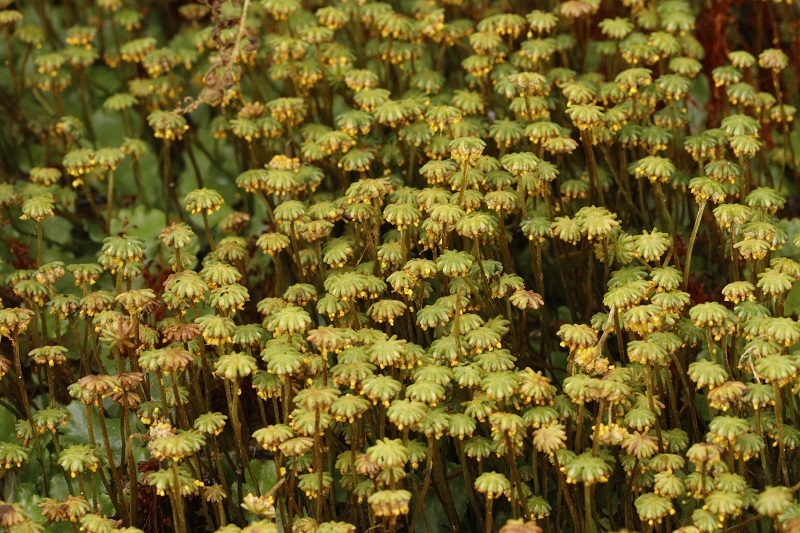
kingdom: Plantae
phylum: Marchantiophyta
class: Marchantiopsida
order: Marchantiales
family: Marchantiaceae
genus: Marchantia
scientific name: Marchantia berteroana
